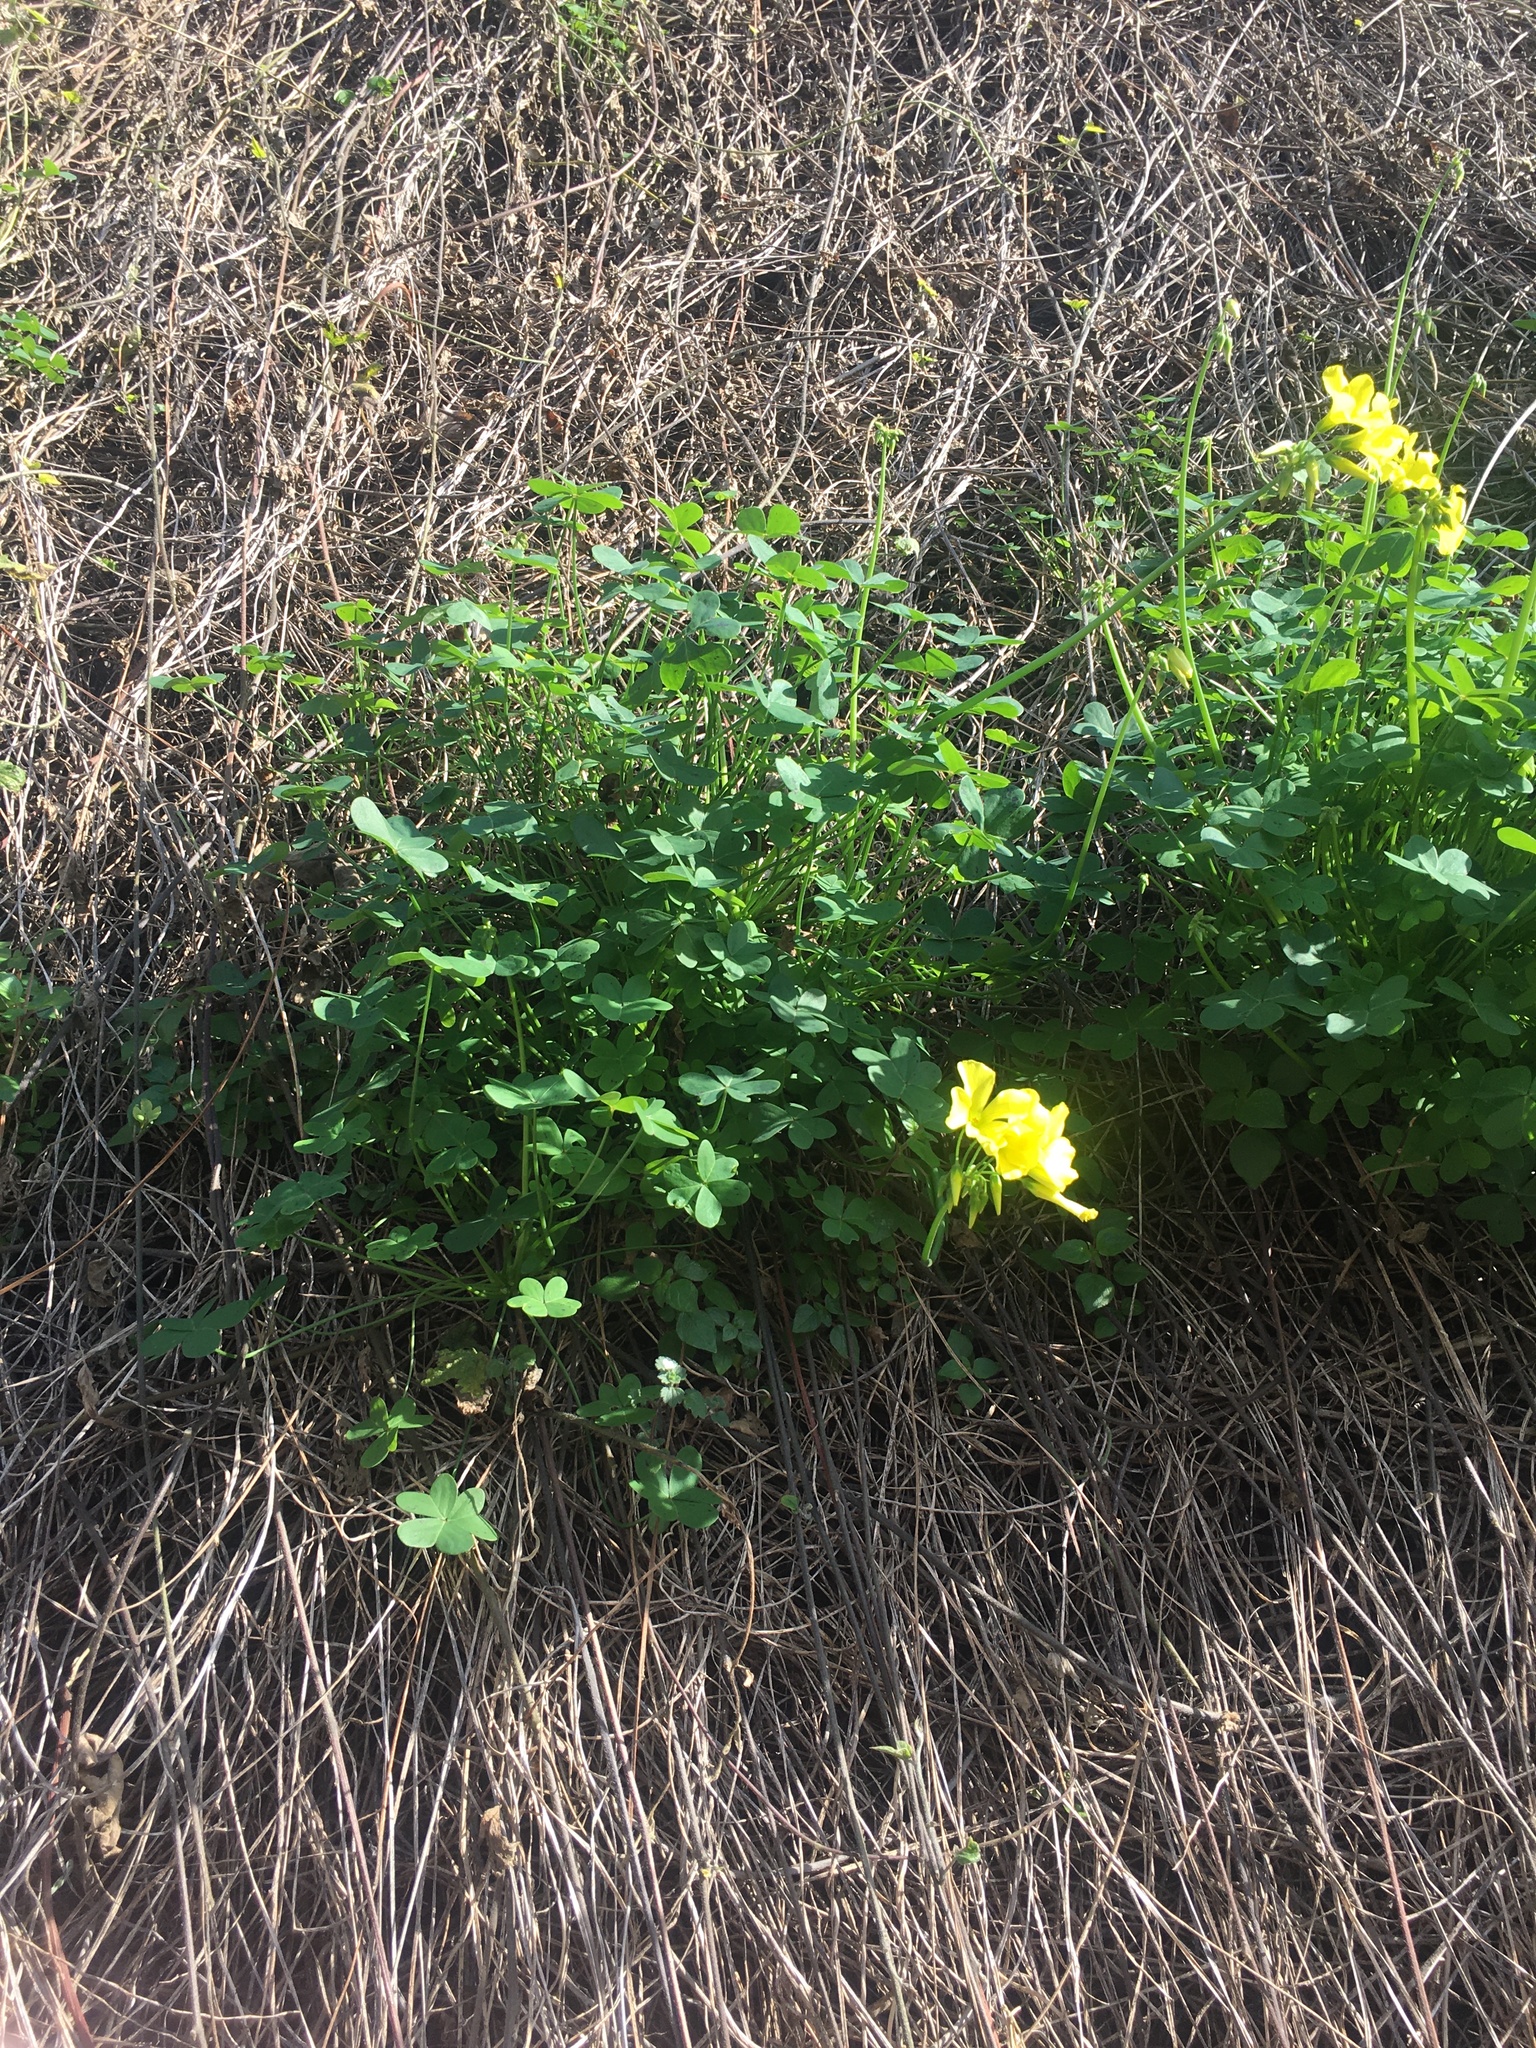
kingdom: Plantae
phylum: Tracheophyta
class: Magnoliopsida
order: Oxalidales
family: Oxalidaceae
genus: Oxalis
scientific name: Oxalis pes-caprae
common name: Bermuda-buttercup
